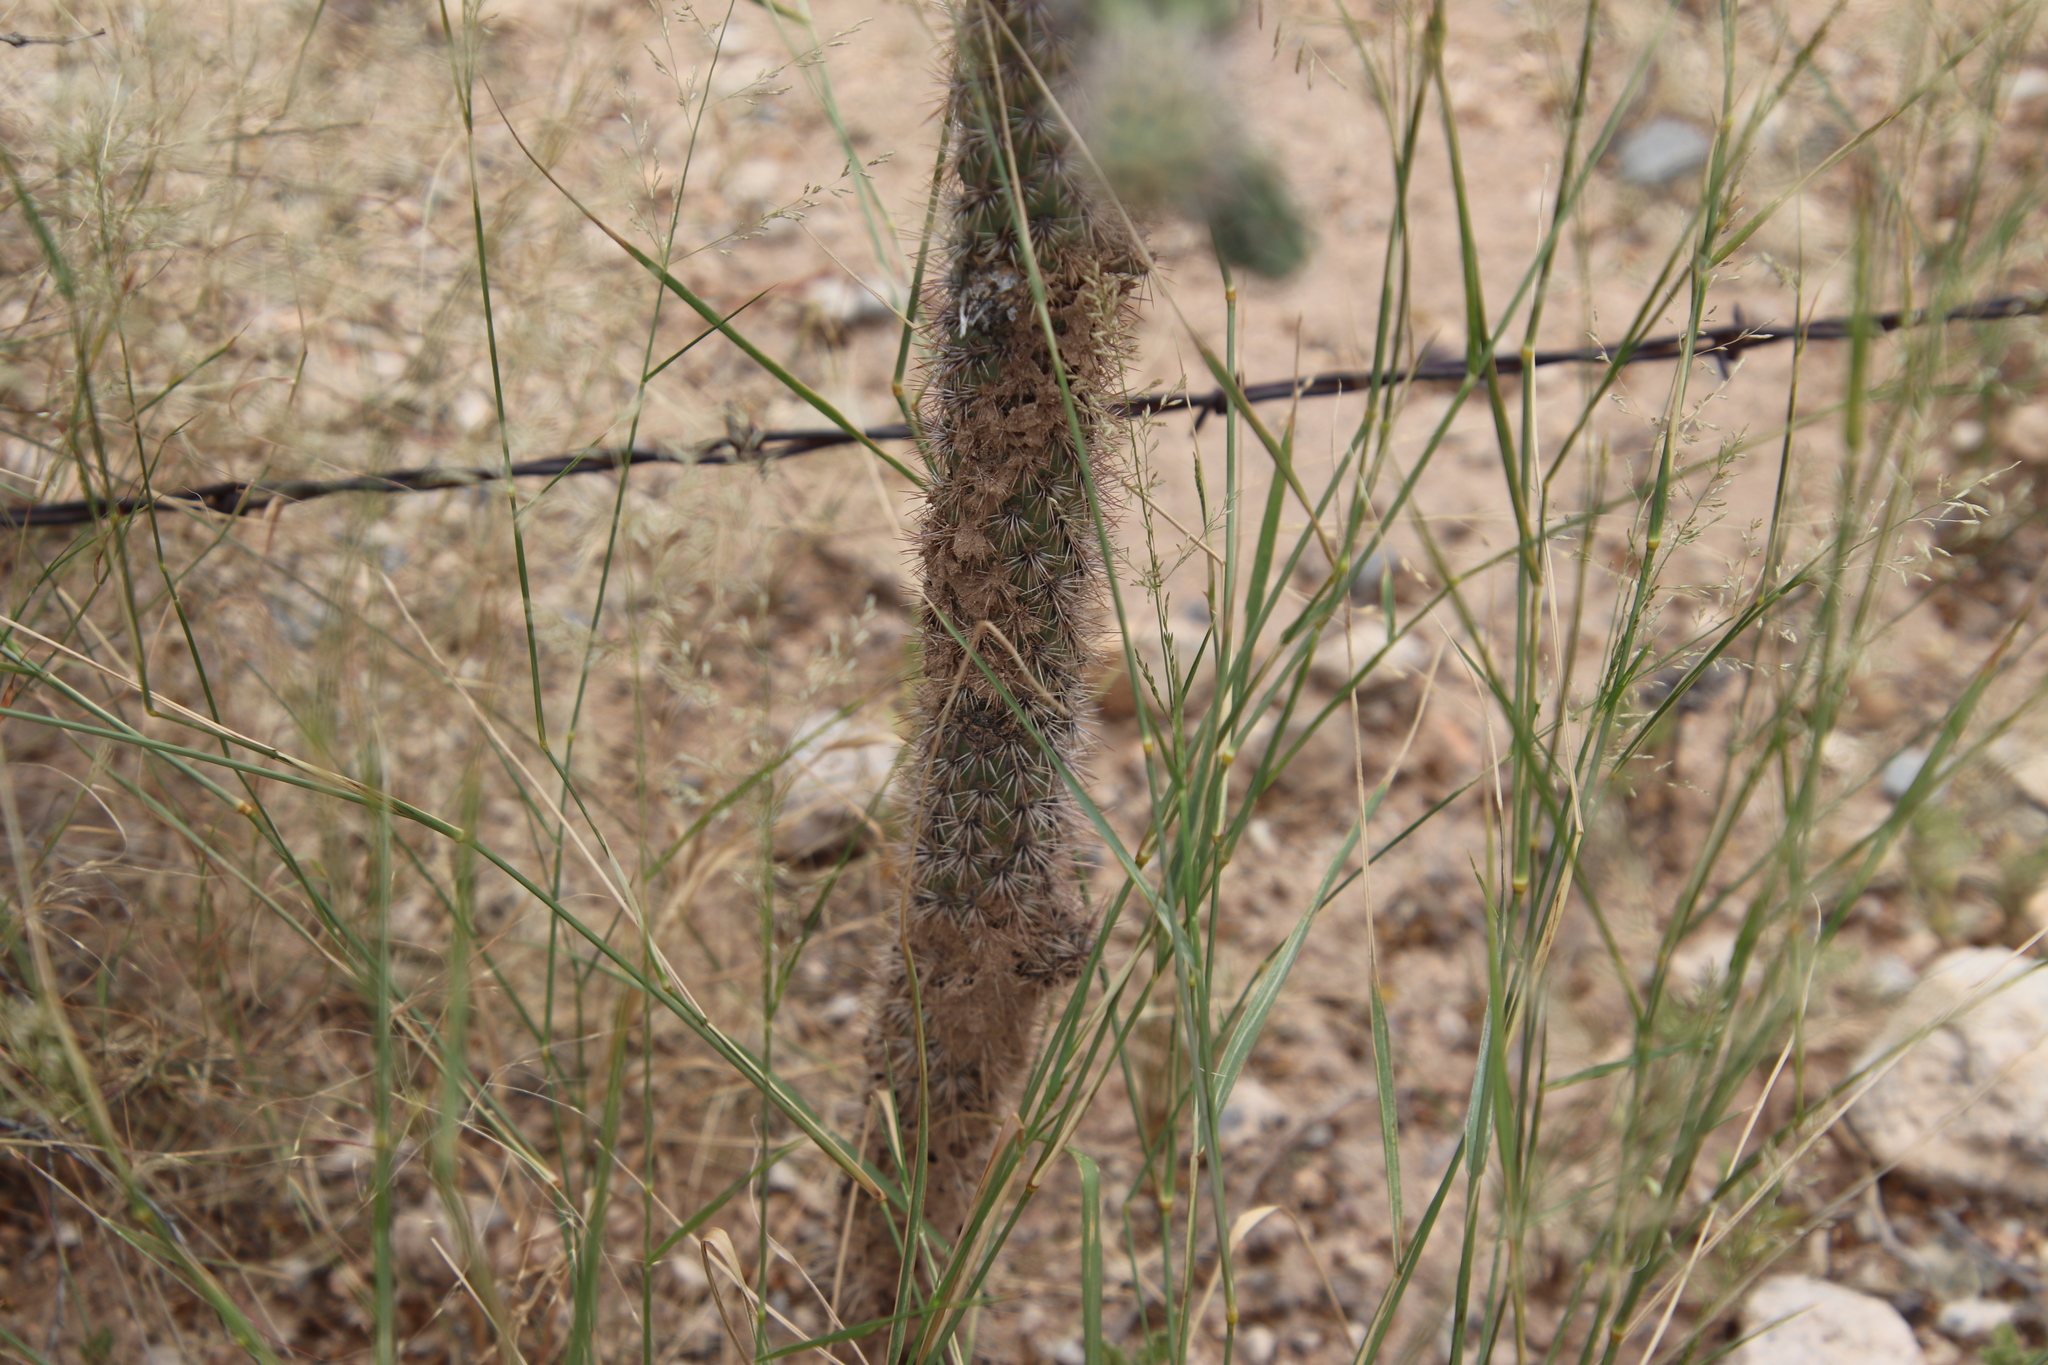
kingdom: Plantae
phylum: Tracheophyta
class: Magnoliopsida
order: Caryophyllales
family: Cactaceae
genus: Cylindropuntia
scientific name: Cylindropuntia imbricata
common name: Candelabrum cactus
